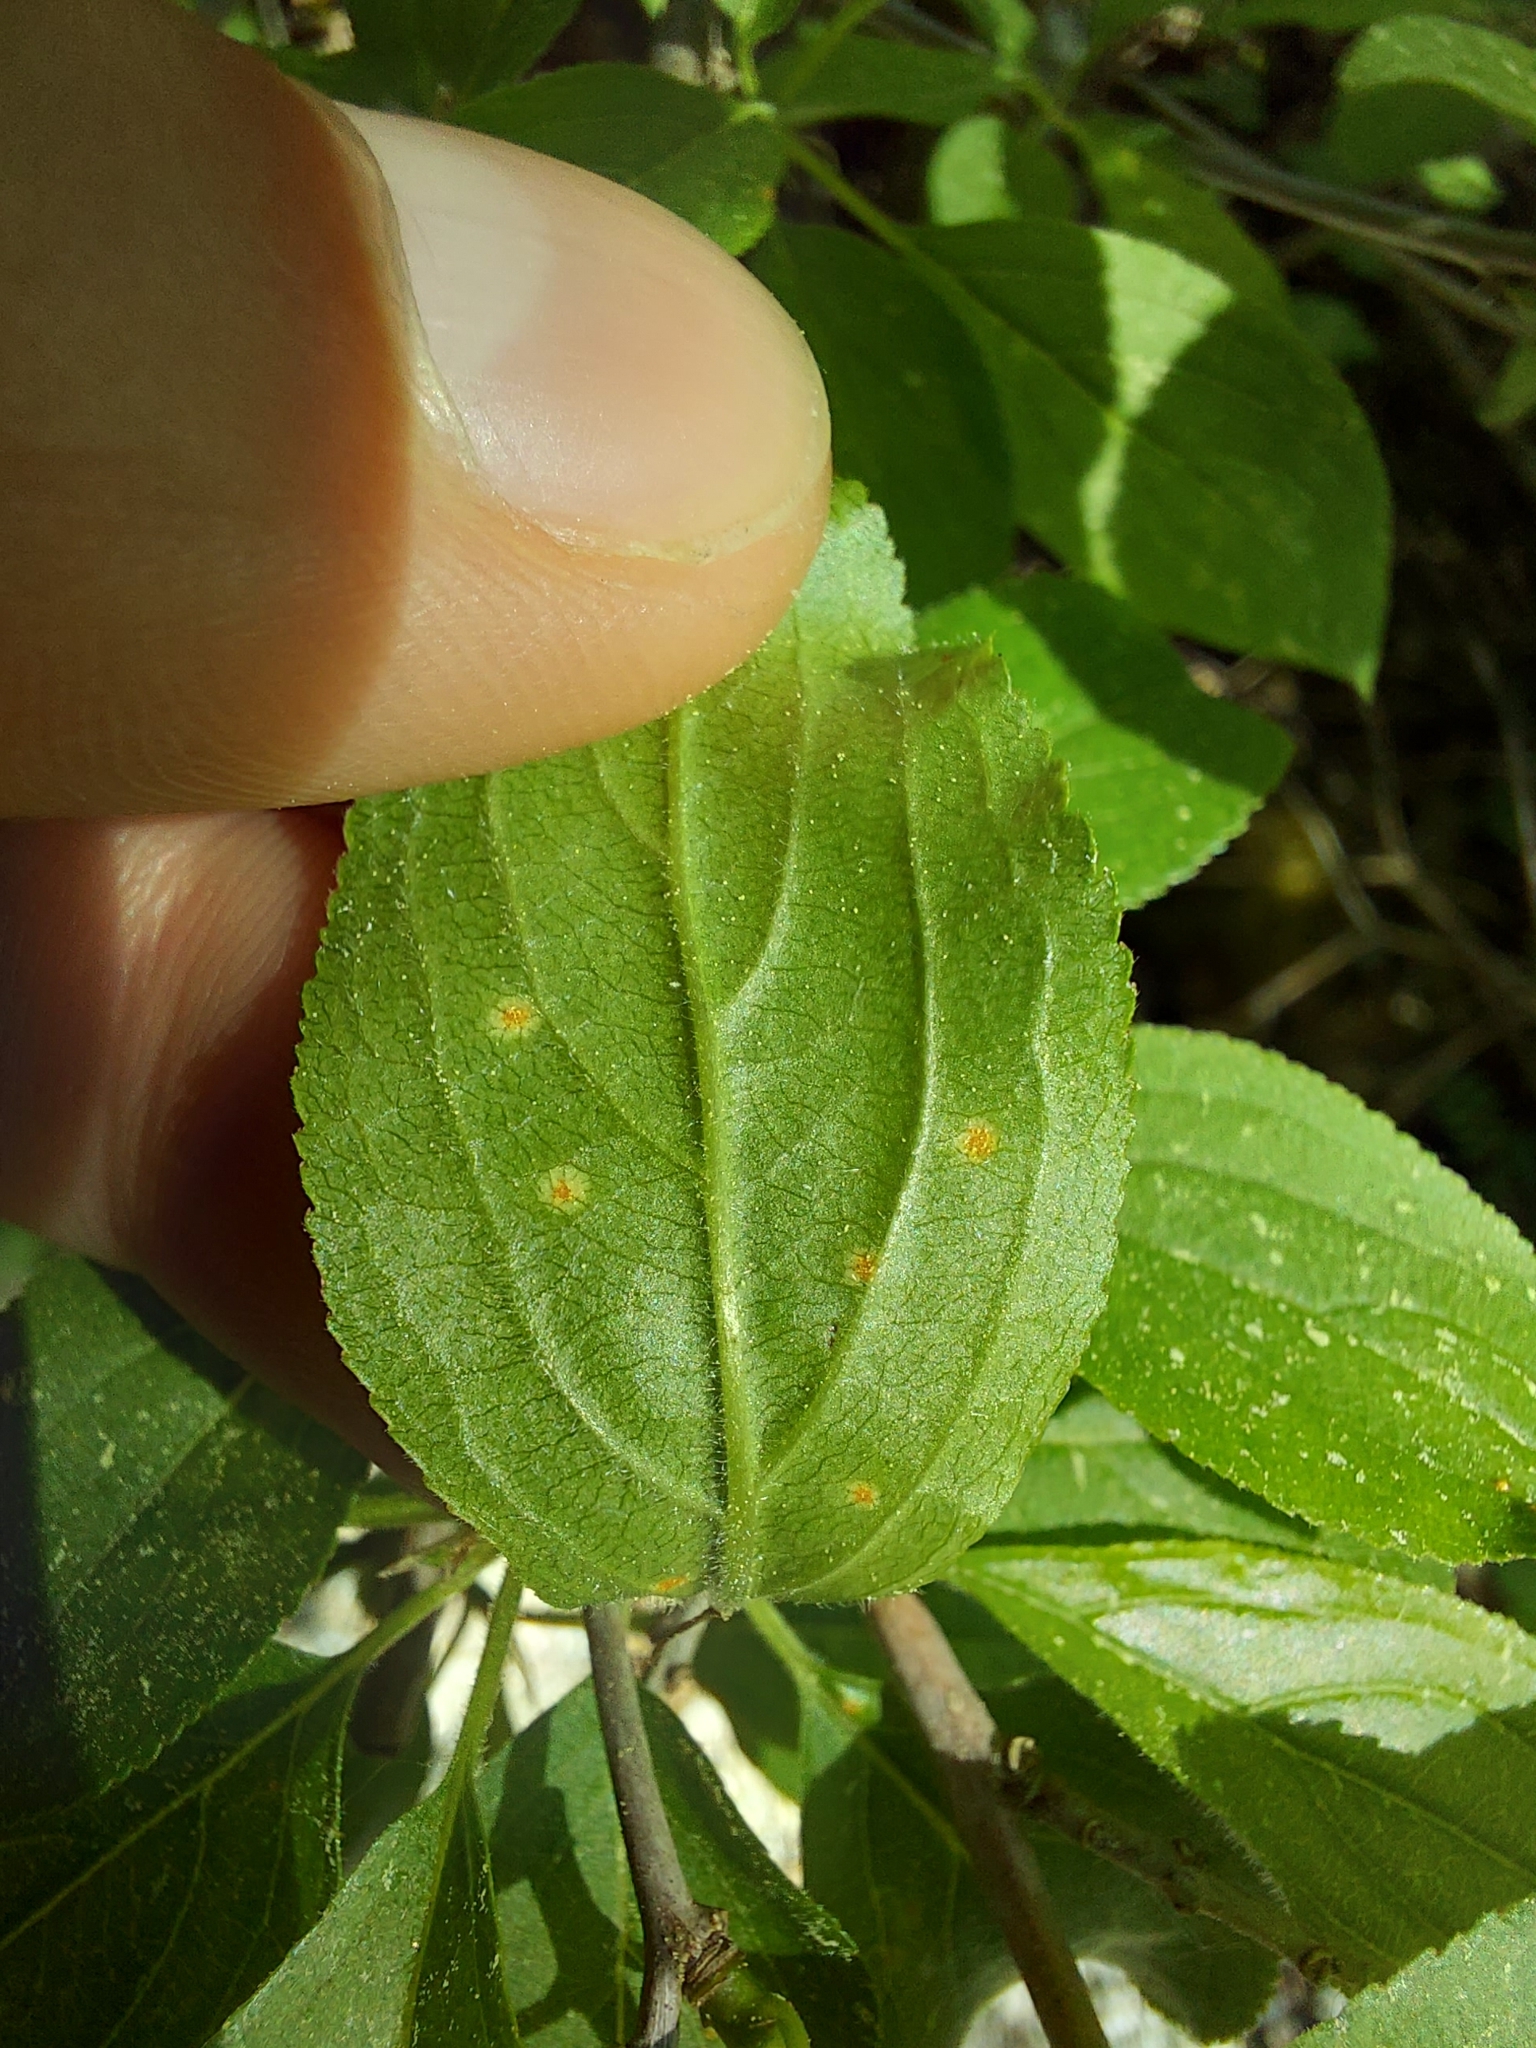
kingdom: Fungi
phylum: Basidiomycota
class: Pucciniomycetes
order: Pucciniales
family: Pucciniaceae
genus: Puccinia
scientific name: Puccinia coronata
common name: Crown rust
